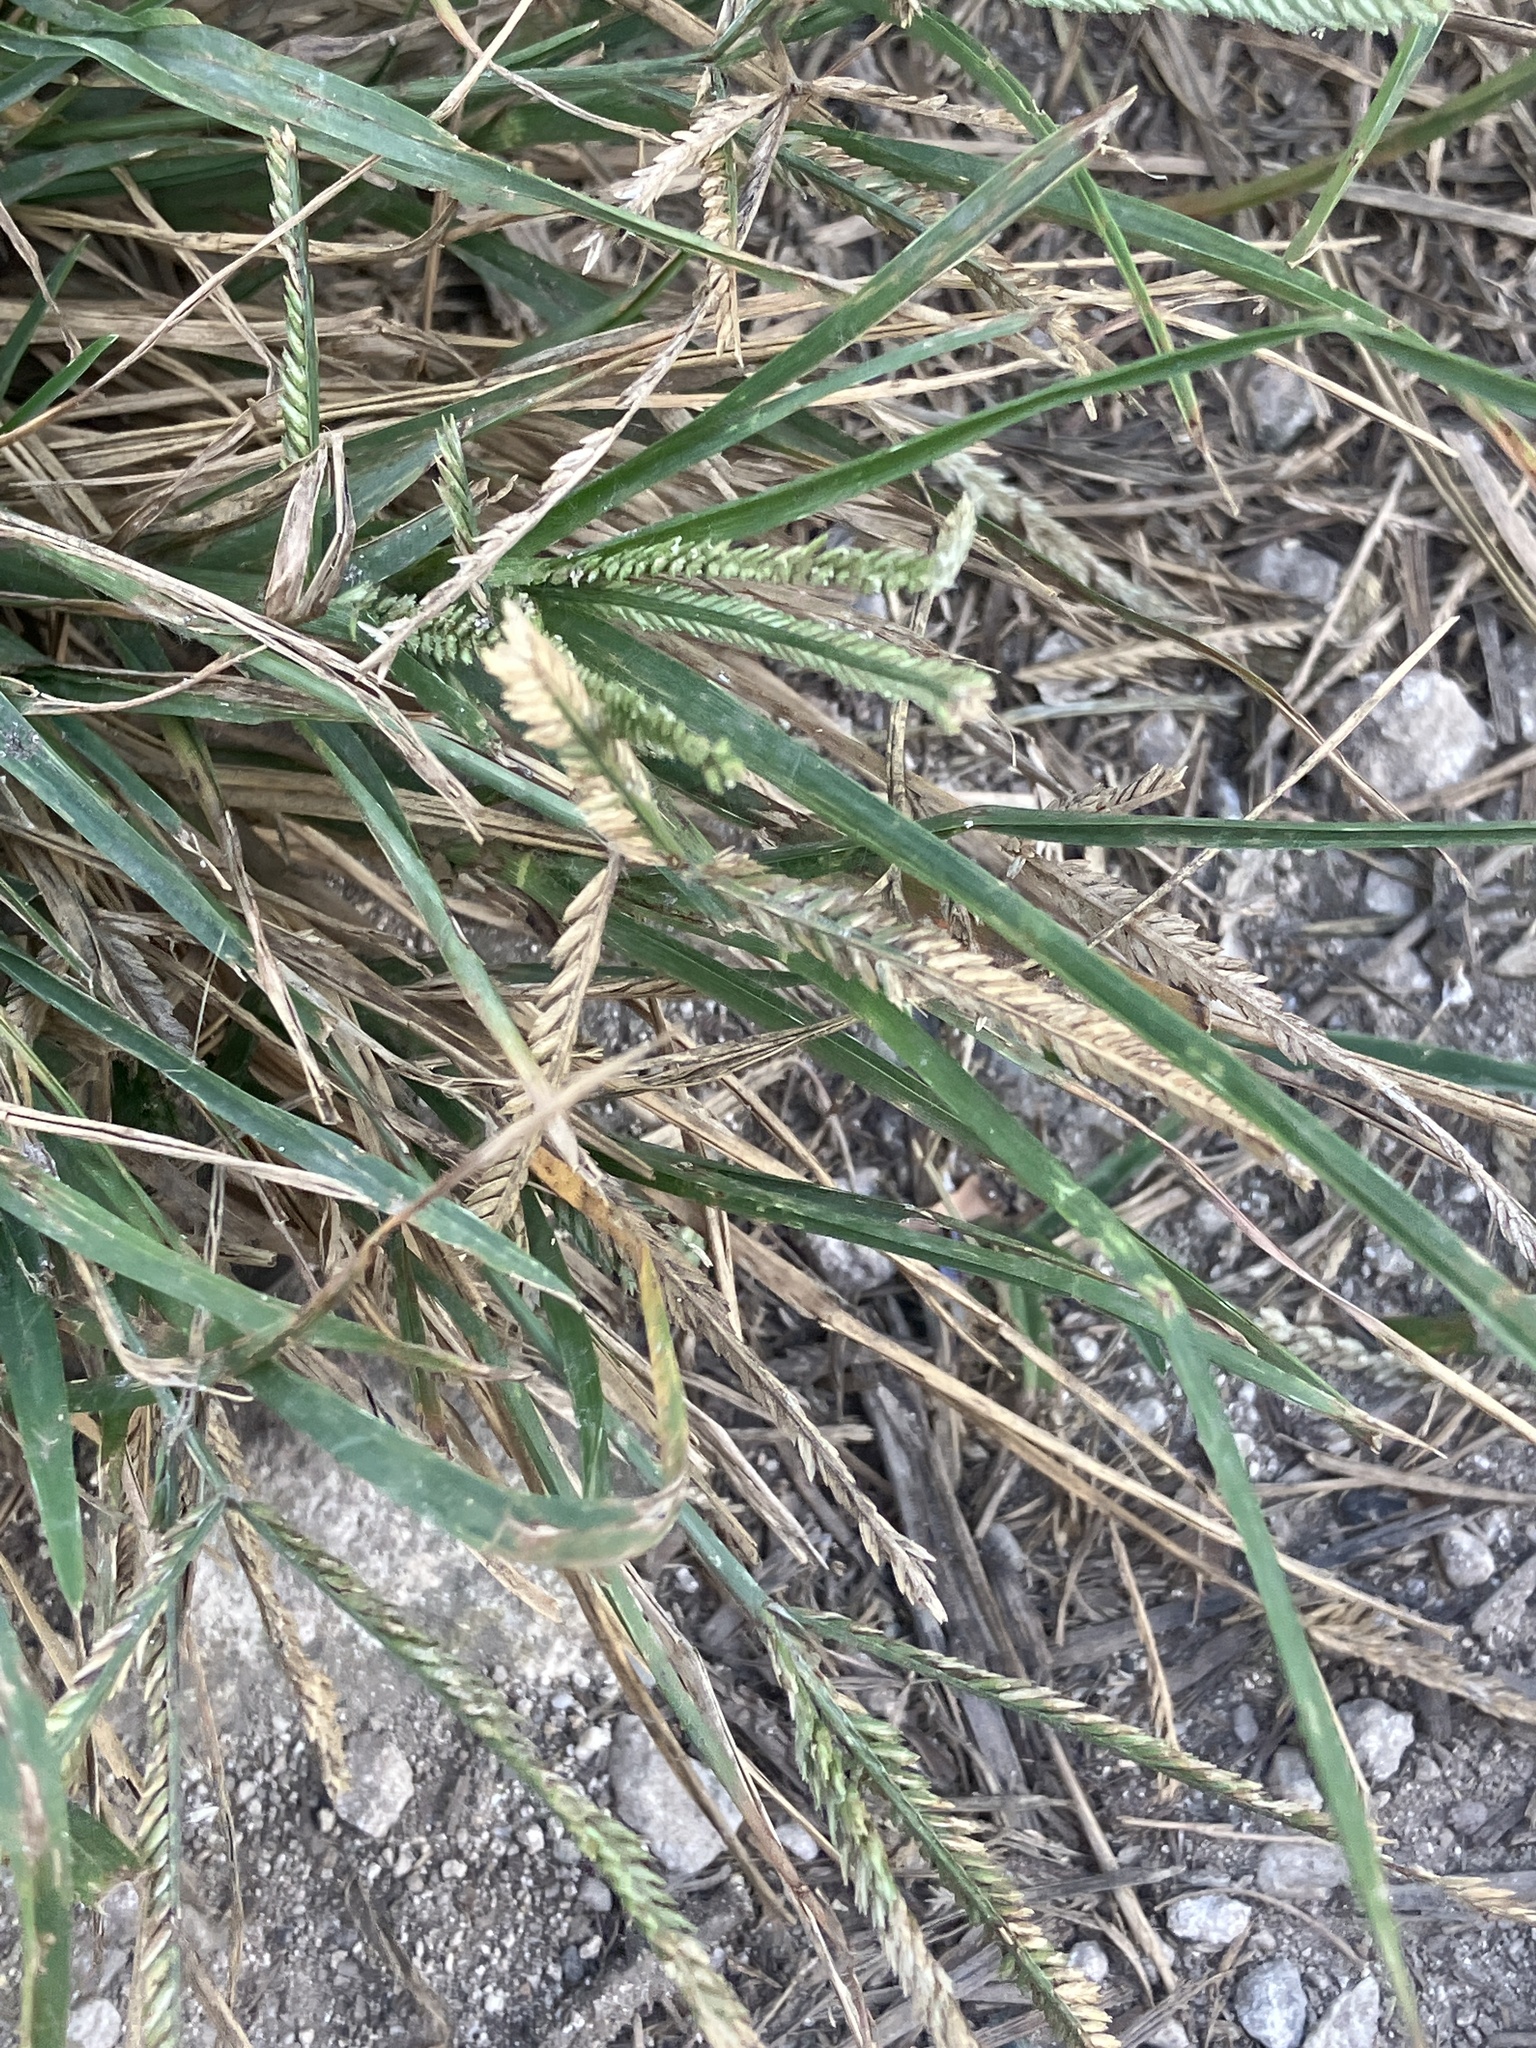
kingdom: Plantae
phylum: Tracheophyta
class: Liliopsida
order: Poales
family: Poaceae
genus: Eleusine
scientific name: Eleusine indica
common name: Yard-grass
